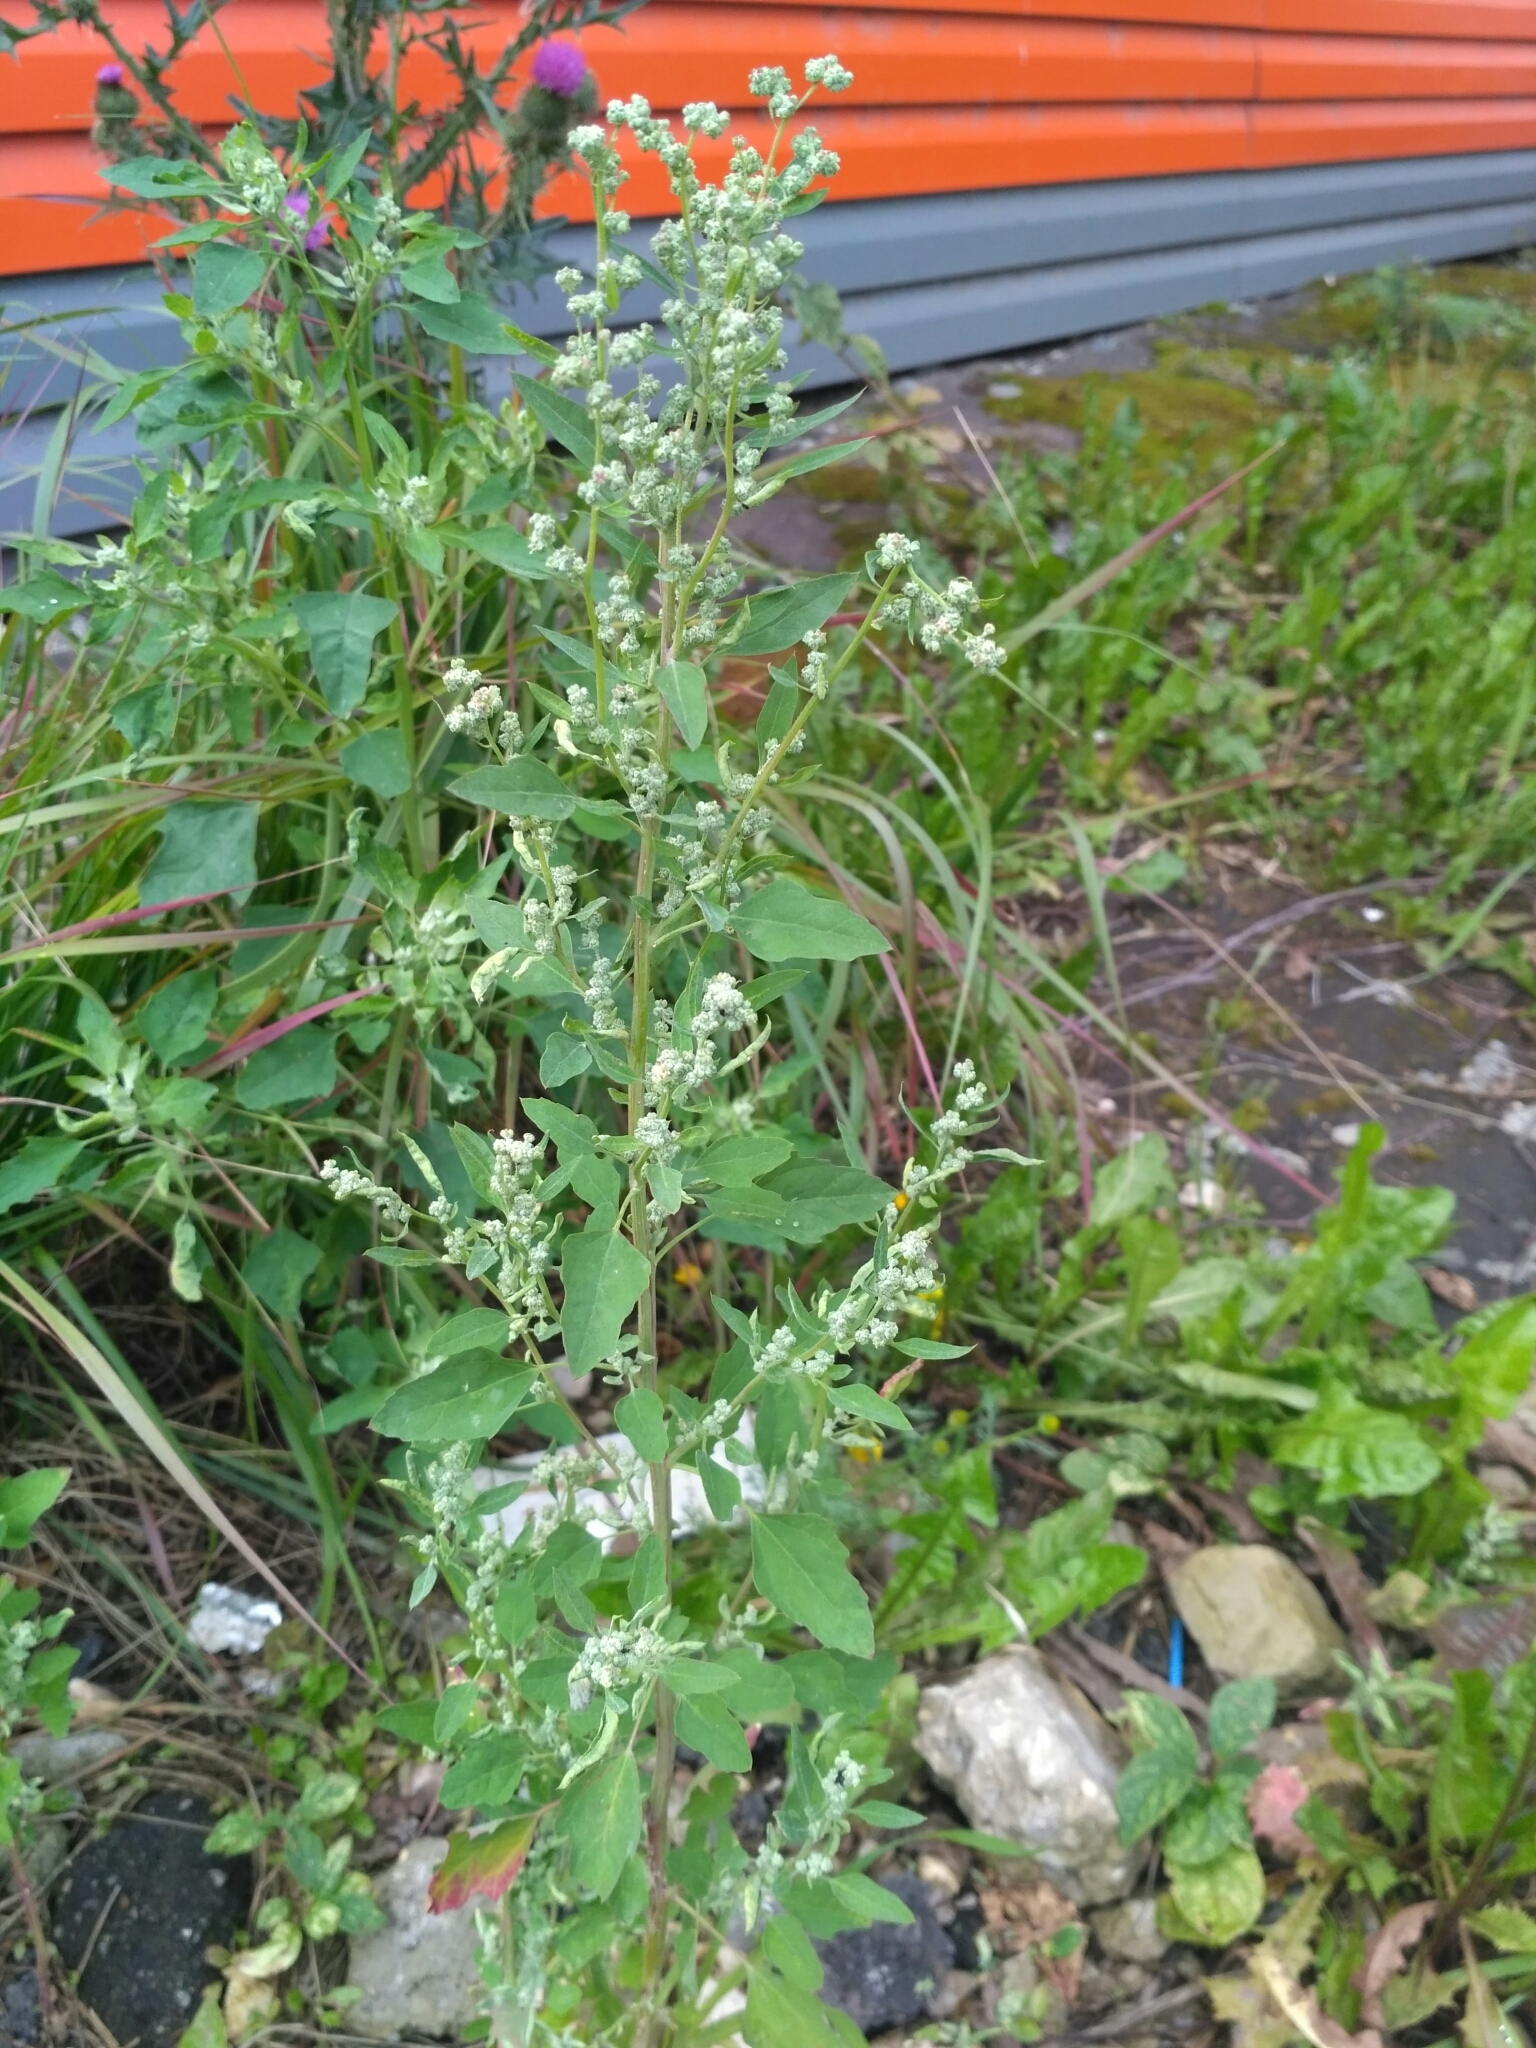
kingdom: Plantae
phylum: Tracheophyta
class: Magnoliopsida
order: Caryophyllales
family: Amaranthaceae
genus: Chenopodium
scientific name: Chenopodium album
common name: Fat-hen
